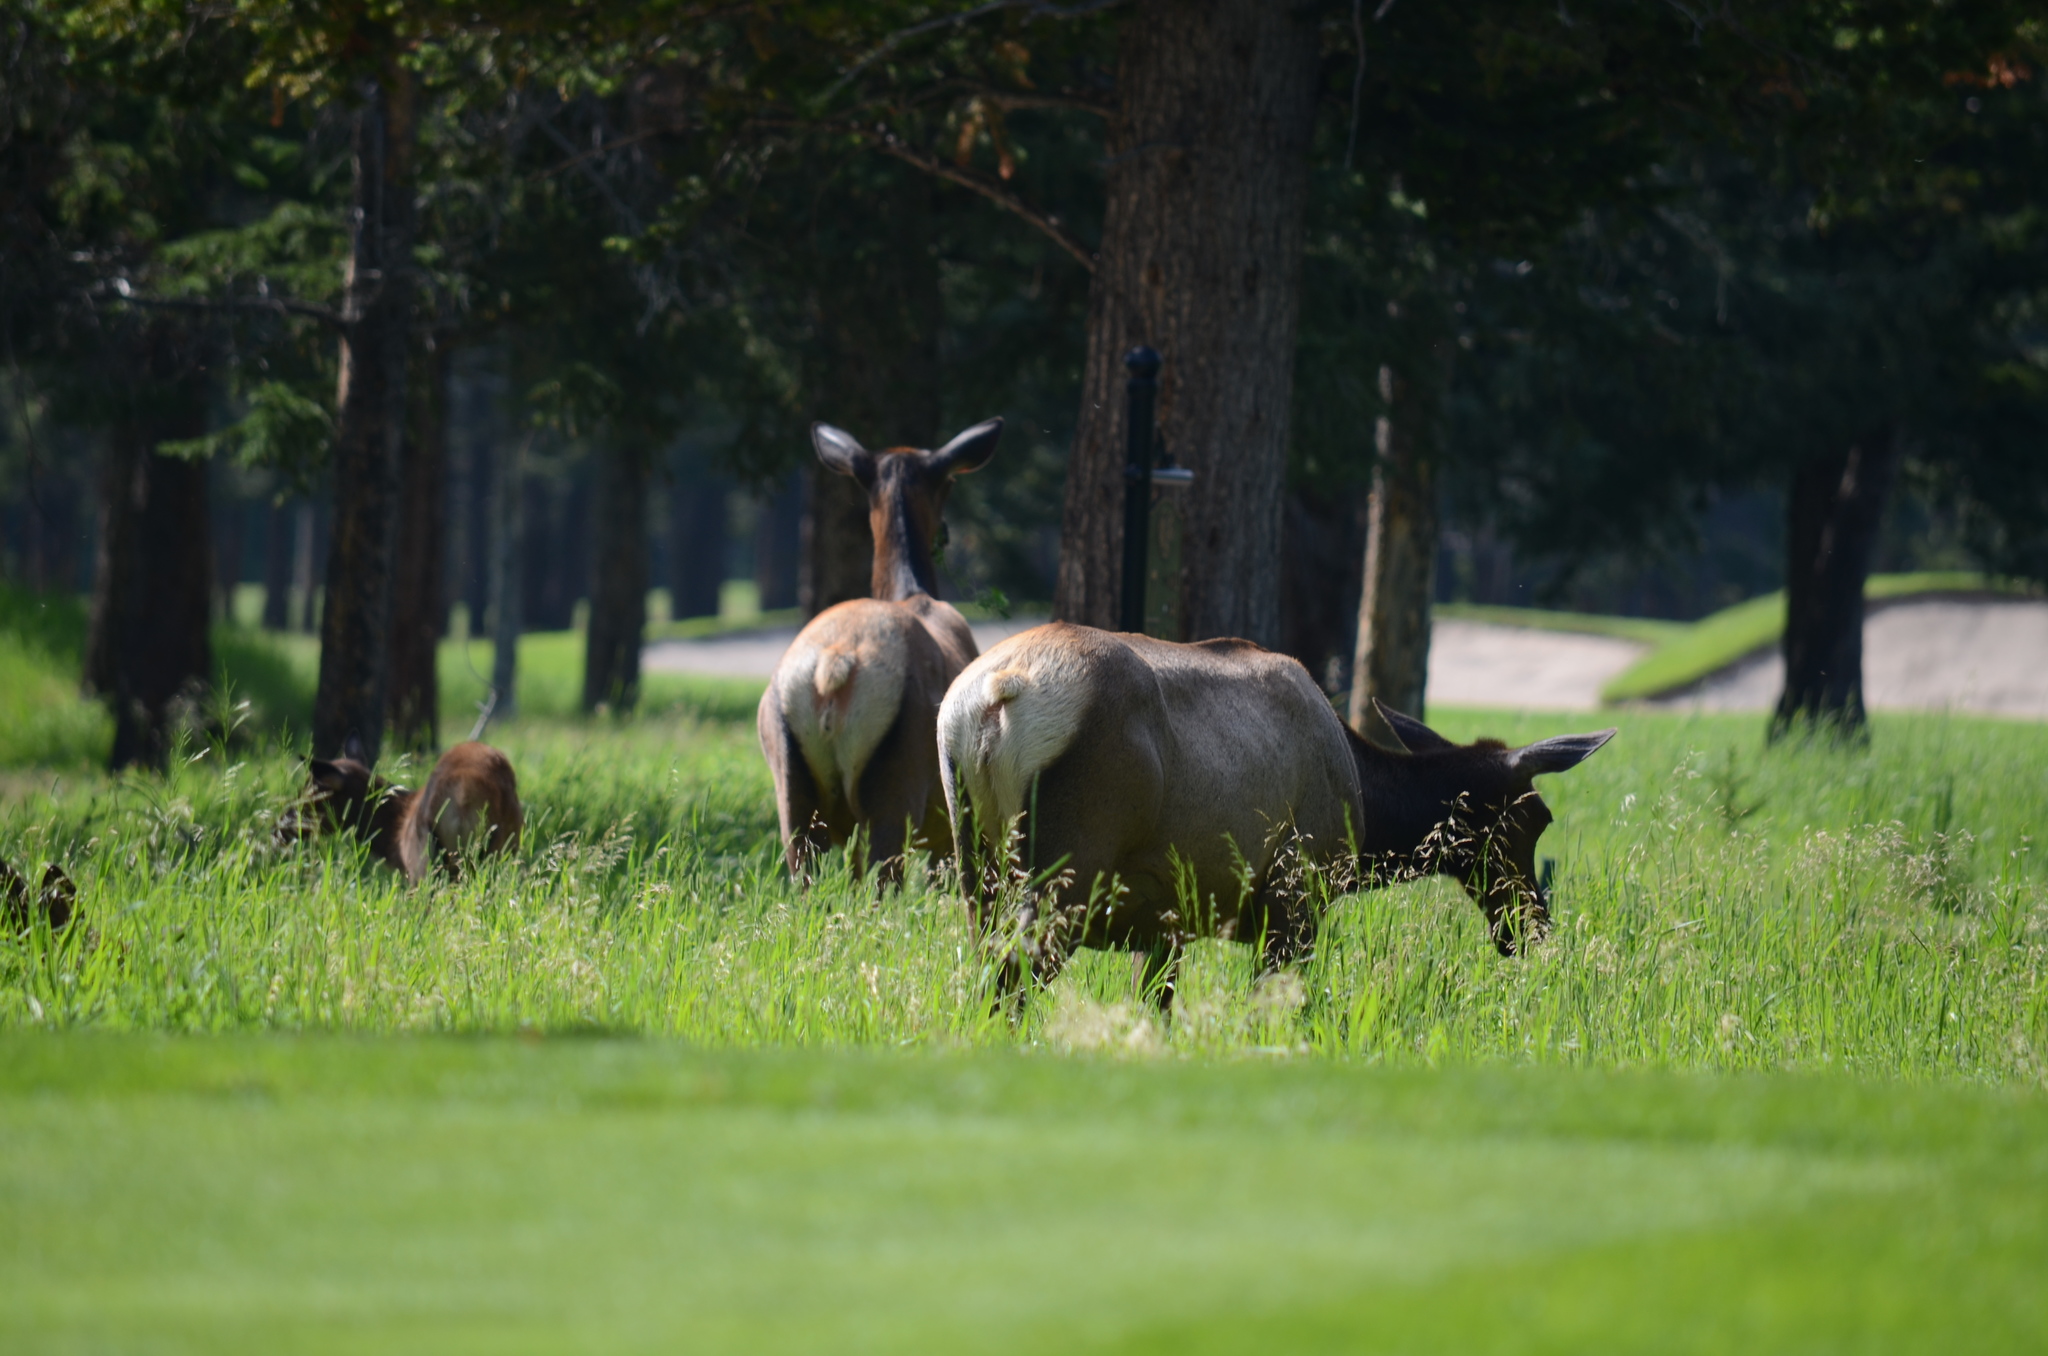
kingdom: Animalia
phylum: Chordata
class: Mammalia
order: Artiodactyla
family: Cervidae
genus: Cervus
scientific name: Cervus elaphus
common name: Red deer
